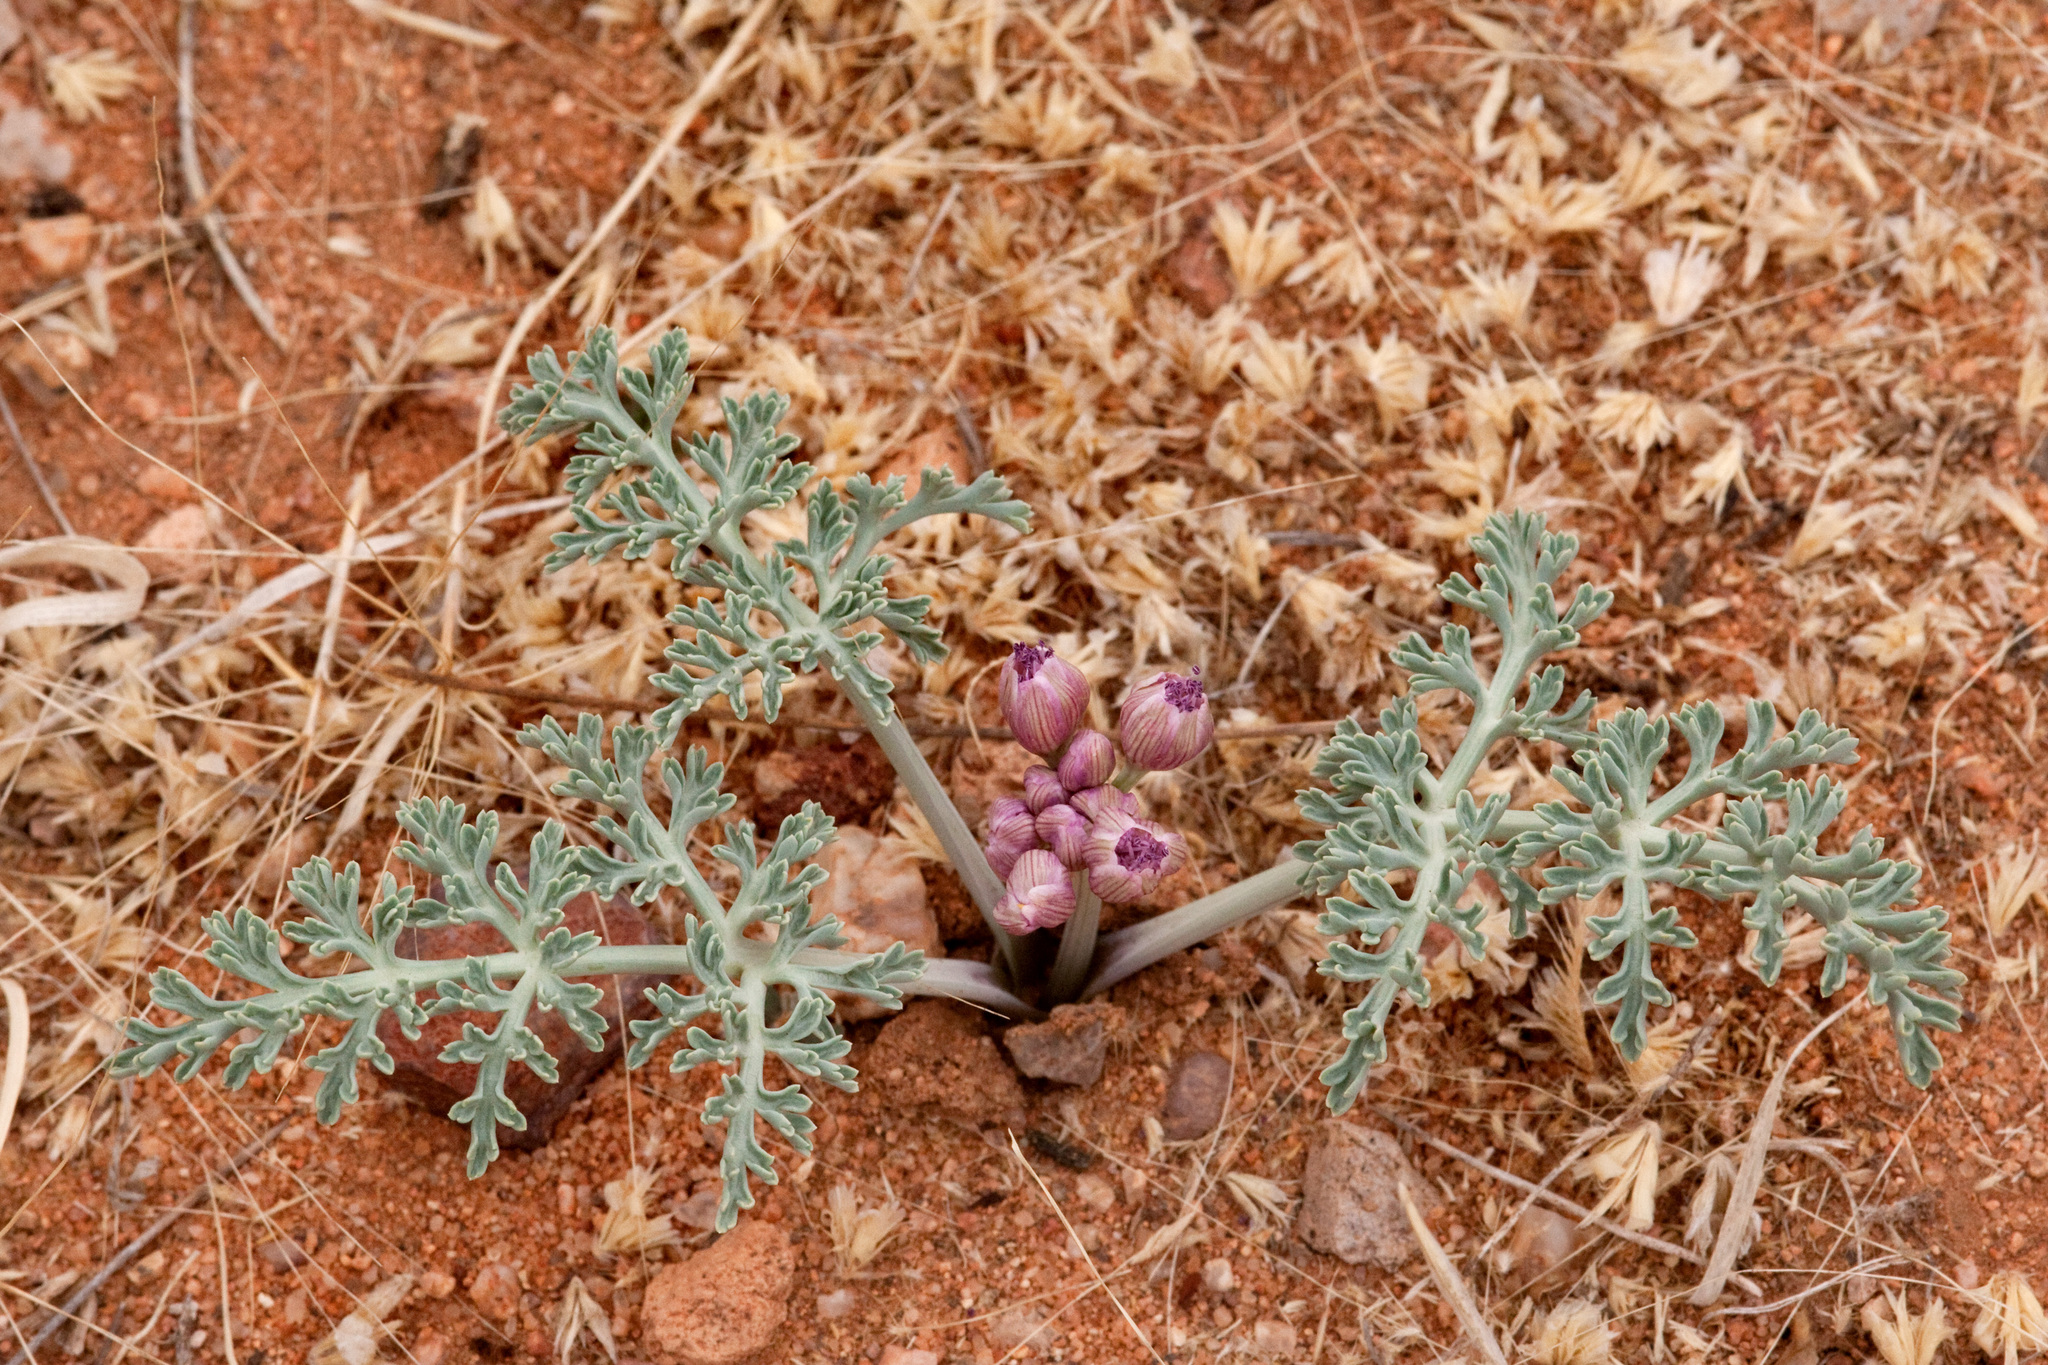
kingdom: Plantae
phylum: Tracheophyta
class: Magnoliopsida
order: Apiales
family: Apiaceae
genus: Vesper
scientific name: Vesper multinervatus
